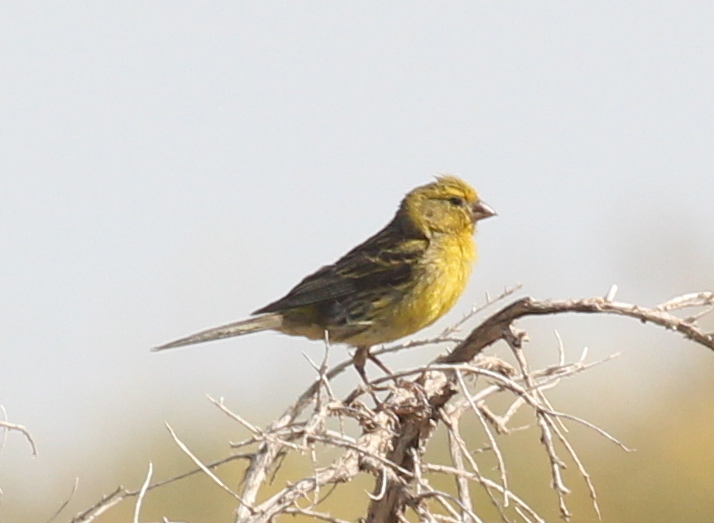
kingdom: Animalia
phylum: Chordata
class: Aves
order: Passeriformes
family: Fringillidae
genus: Serinus
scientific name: Serinus canaria
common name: Atlantic canary
